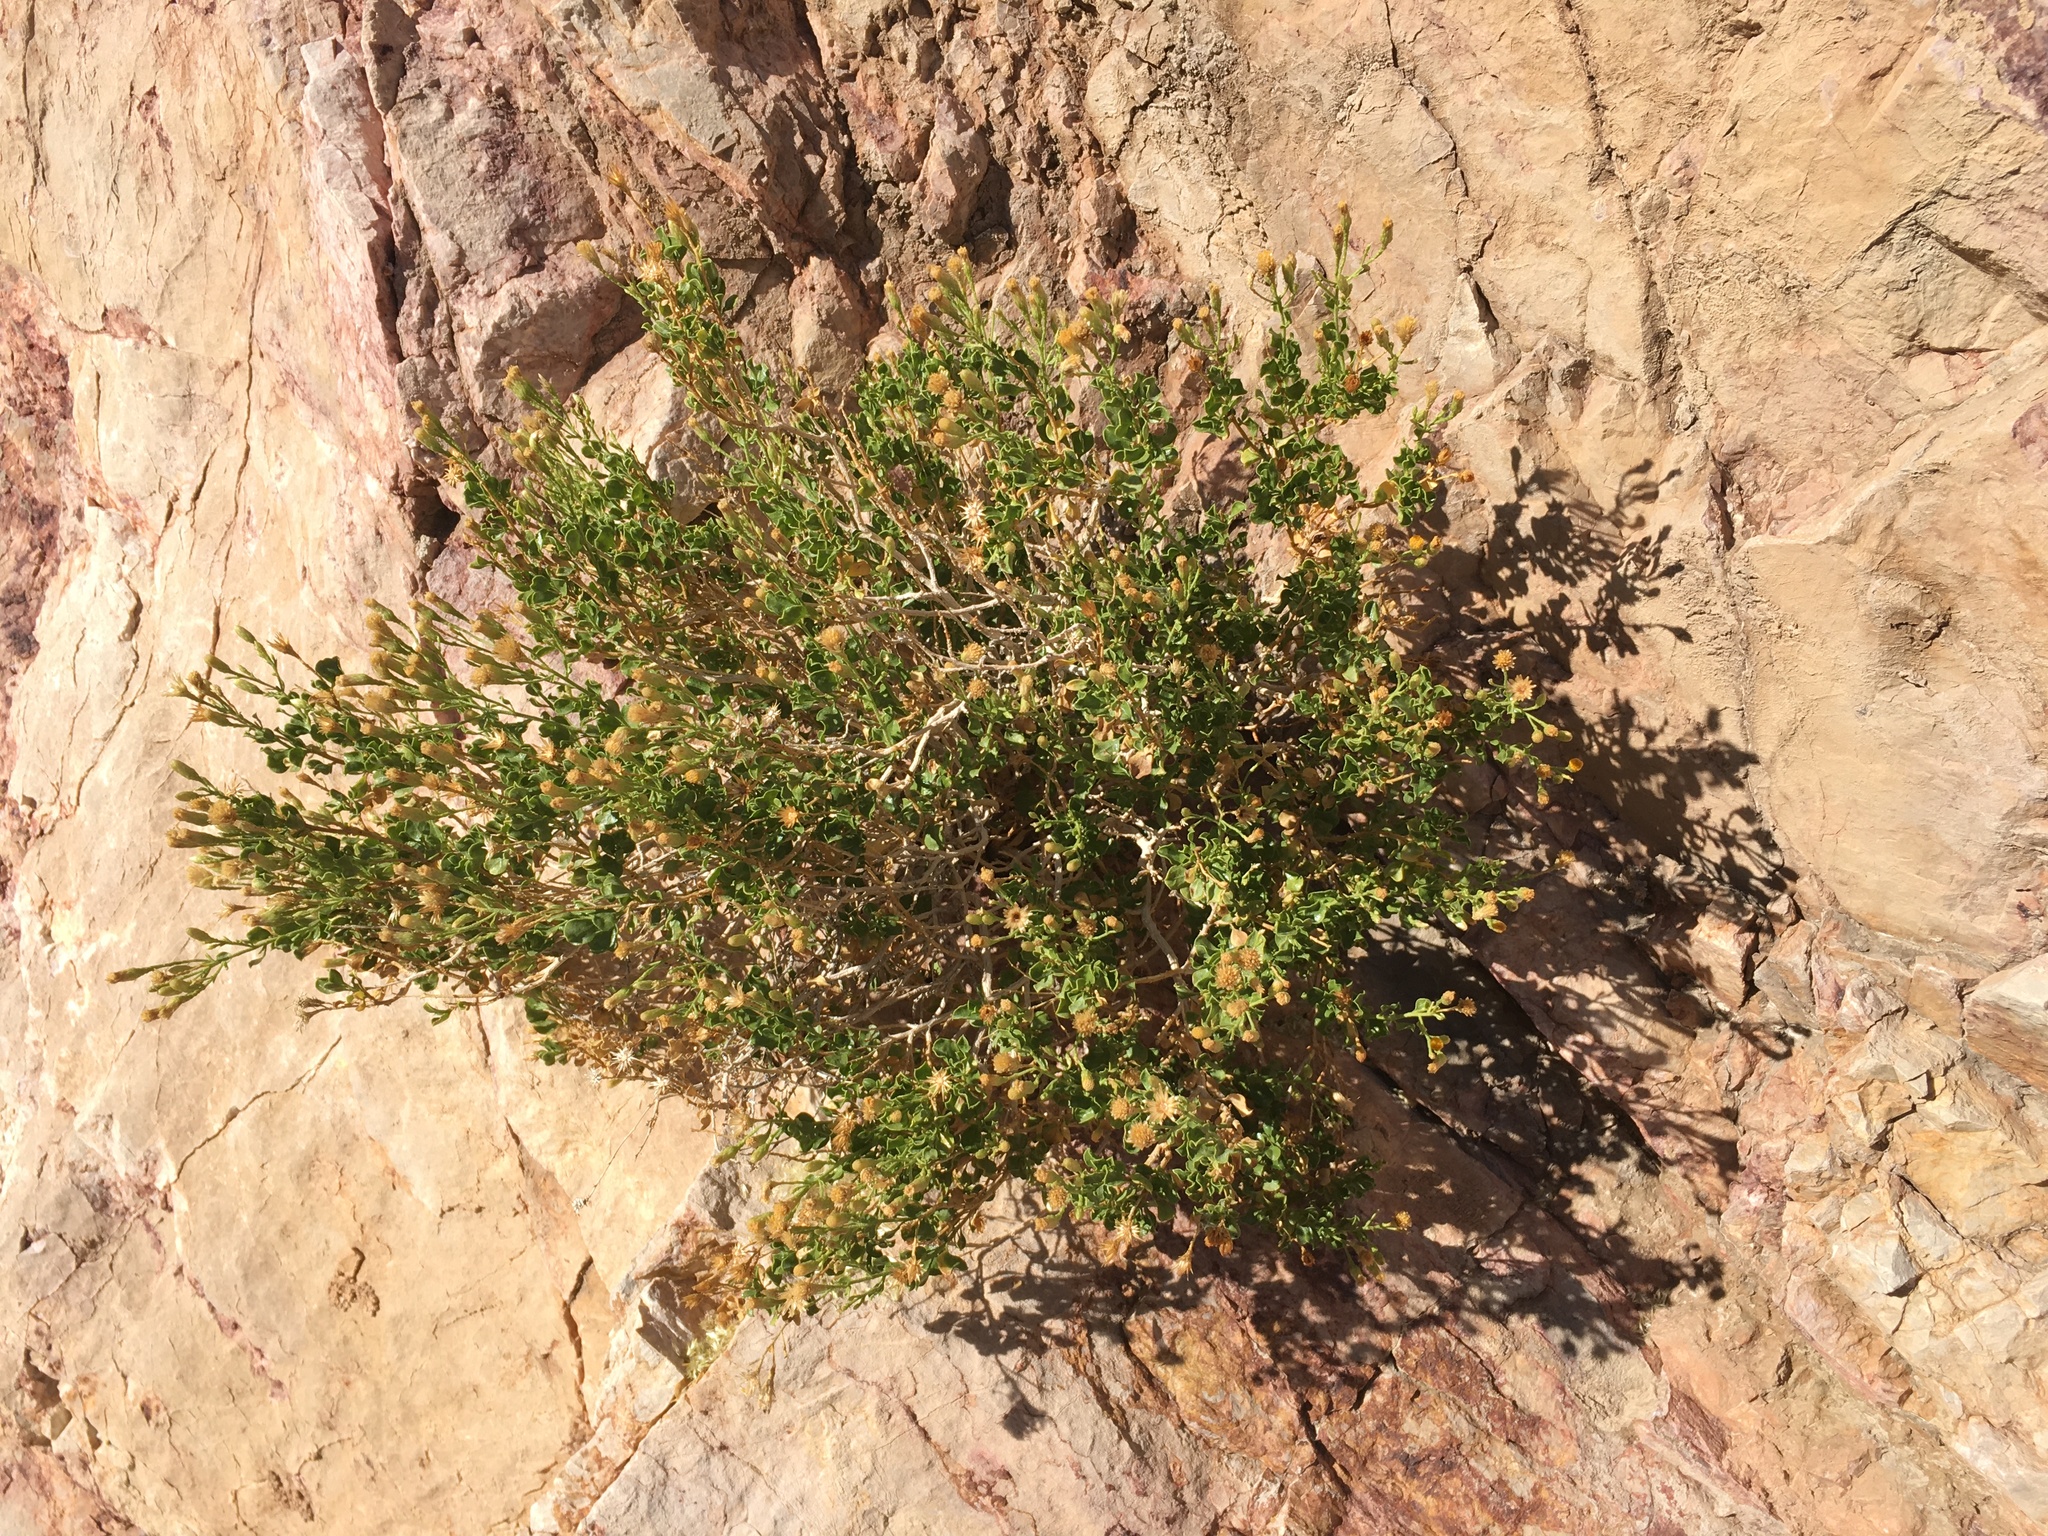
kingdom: Plantae
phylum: Tracheophyta
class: Magnoliopsida
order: Asterales
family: Asteraceae
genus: Ericameria
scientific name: Ericameria cuneata
